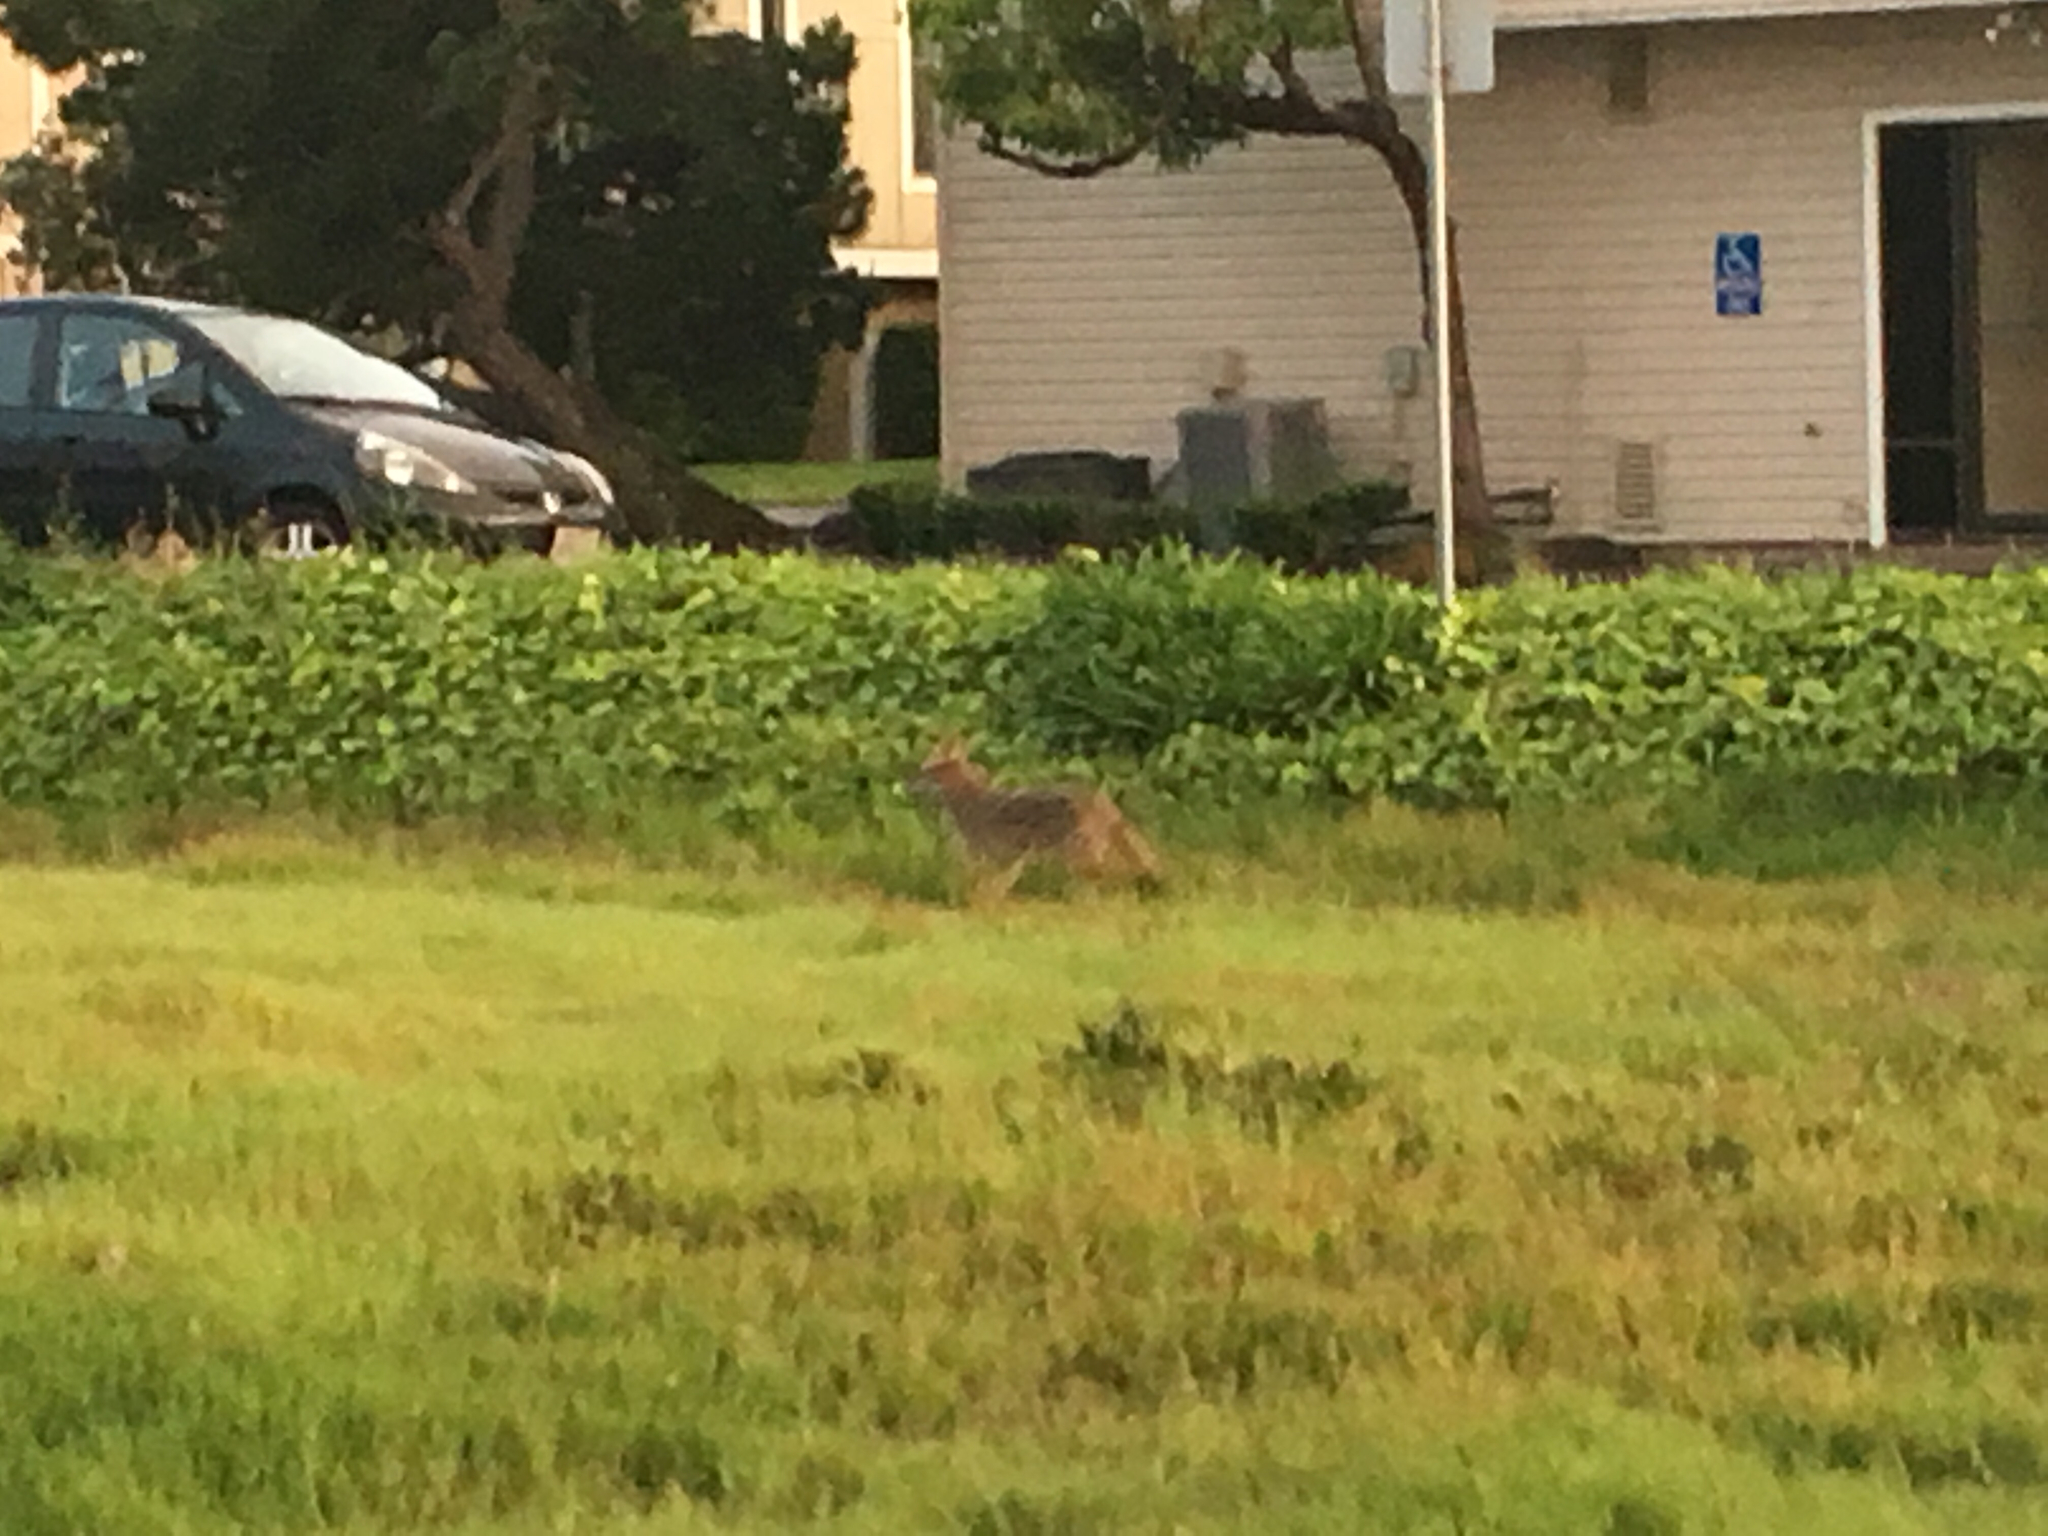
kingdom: Animalia
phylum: Chordata
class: Mammalia
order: Carnivora
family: Canidae
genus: Canis
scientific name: Canis latrans
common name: Coyote
